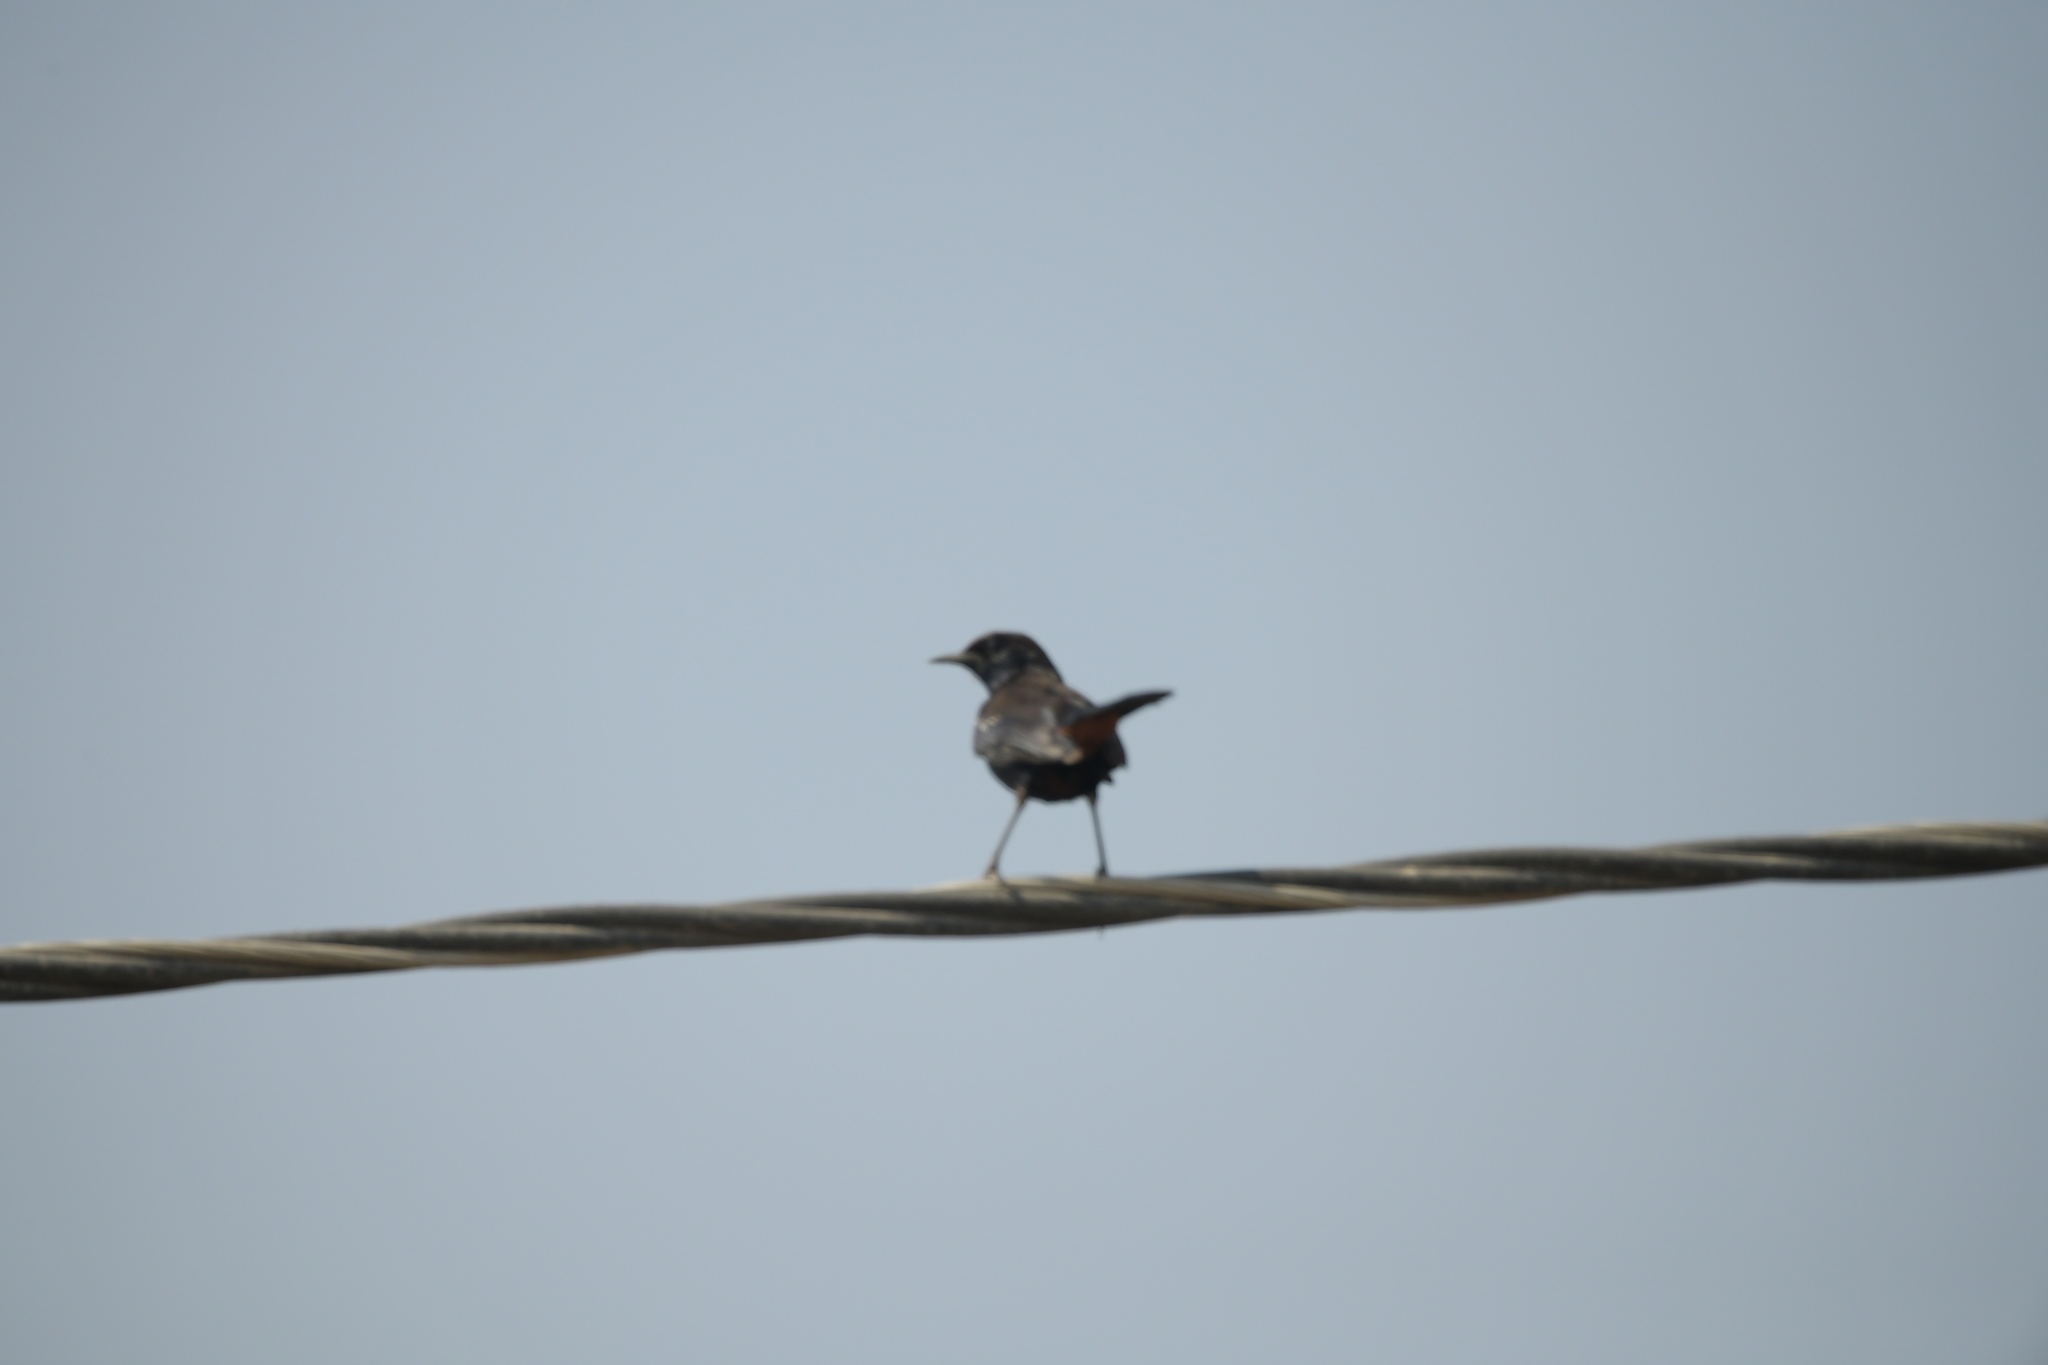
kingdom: Animalia
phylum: Chordata
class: Aves
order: Passeriformes
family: Muscicapidae
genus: Saxicoloides
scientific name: Saxicoloides fulicatus
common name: Indian robin
